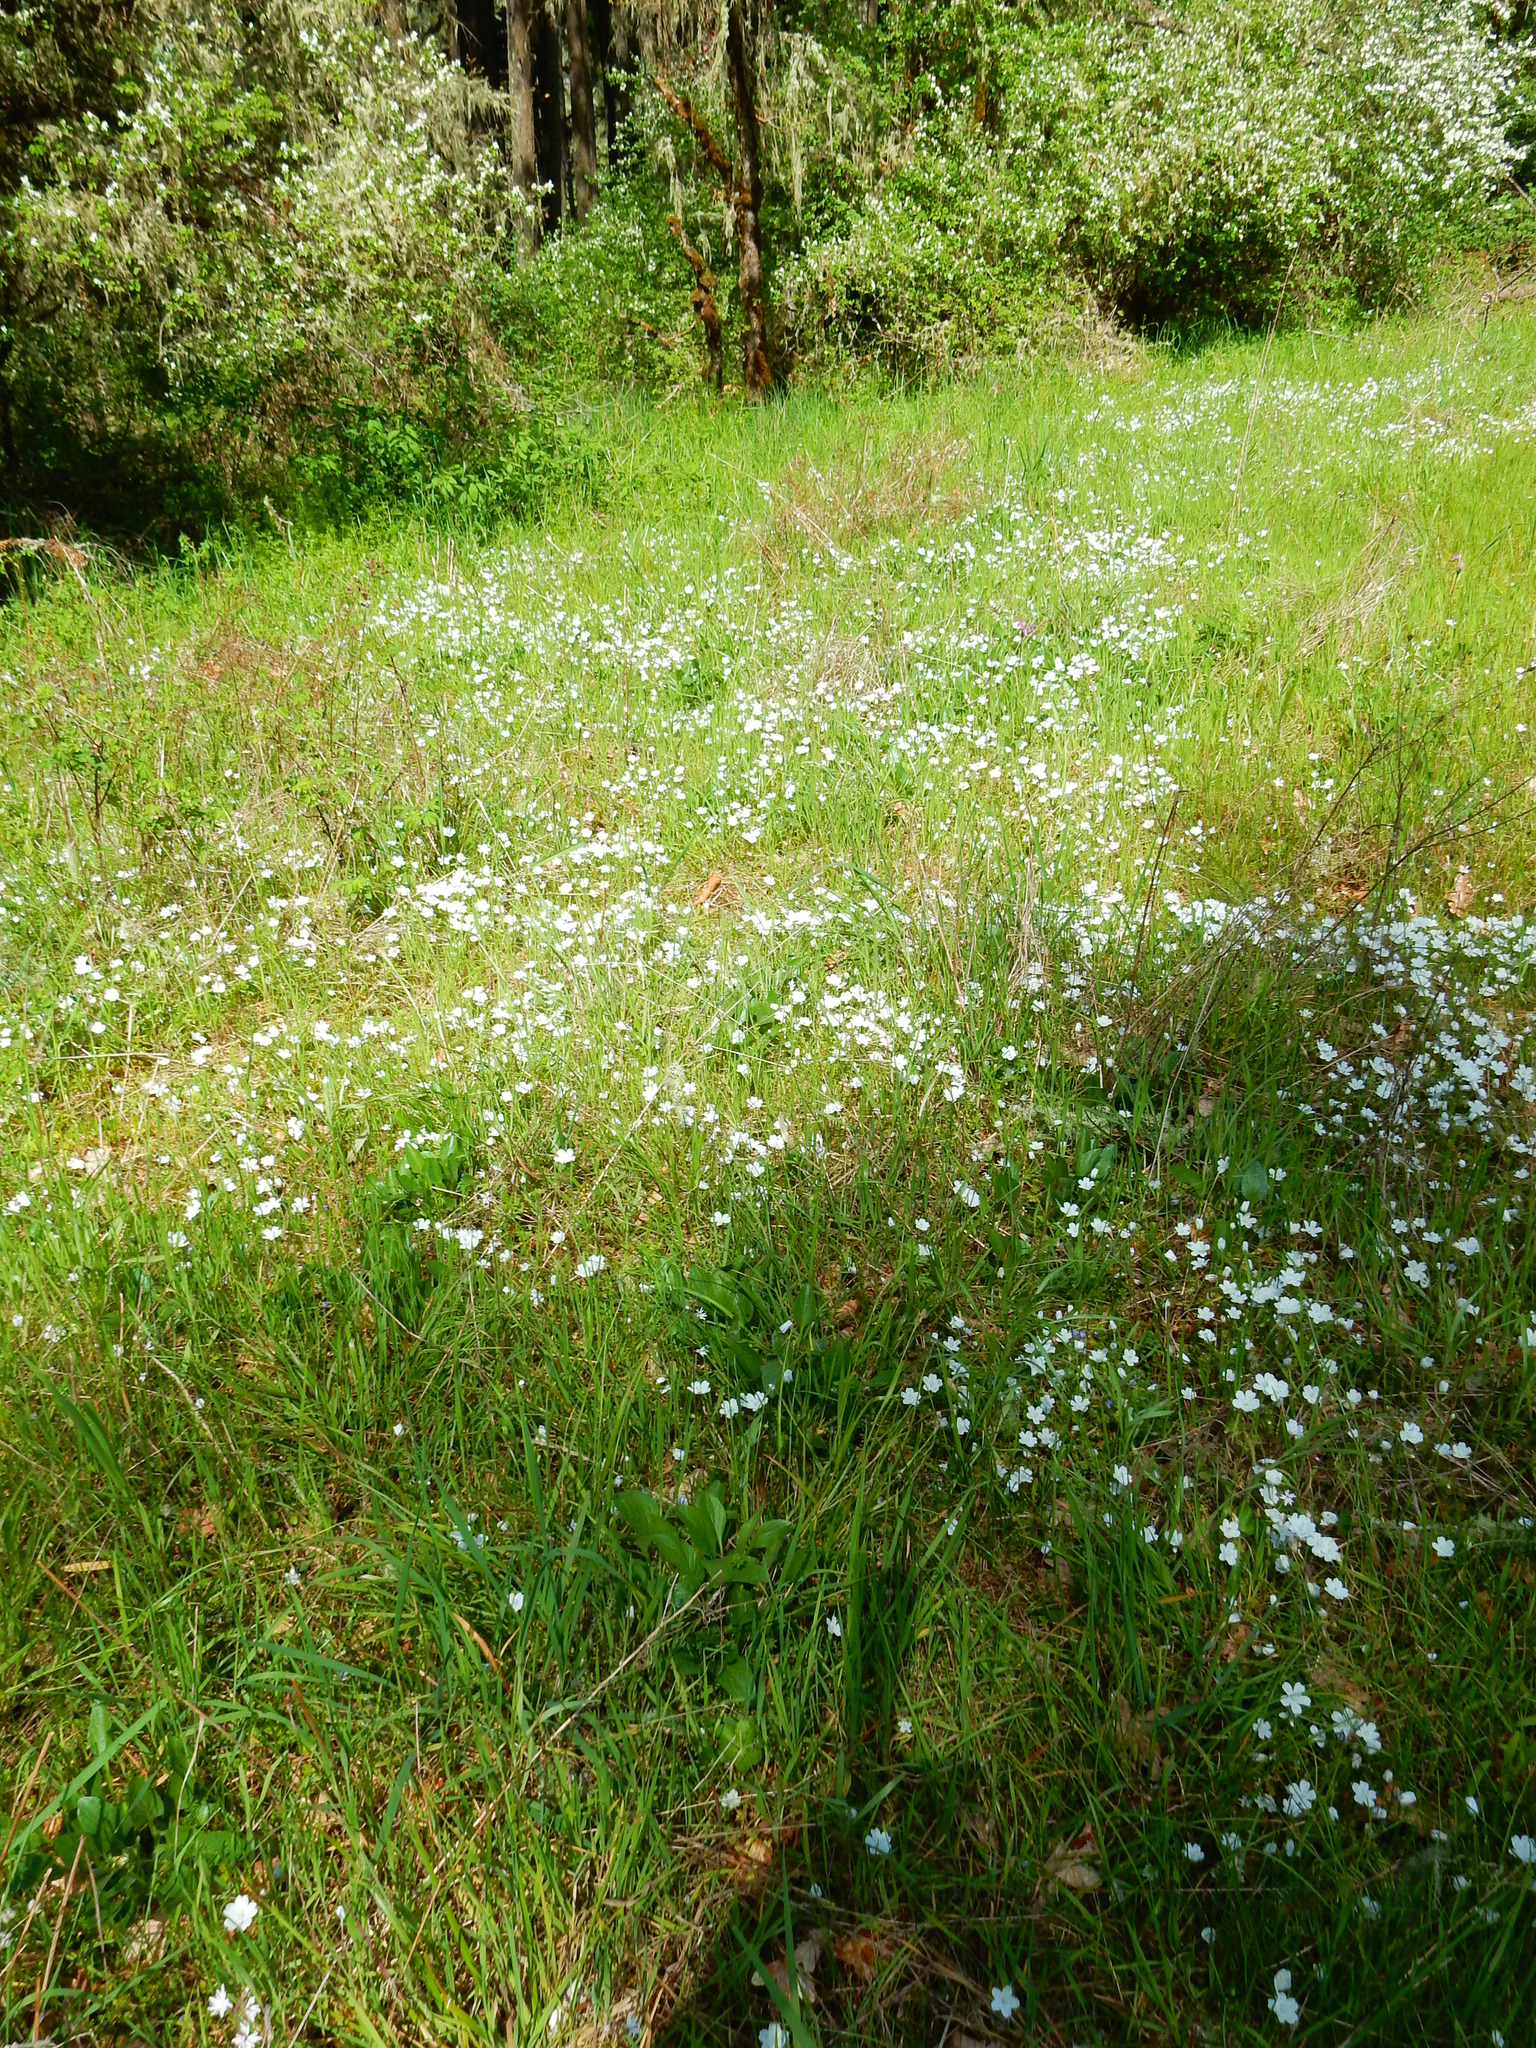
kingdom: Plantae
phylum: Tracheophyta
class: Magnoliopsida
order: Boraginales
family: Hydrophyllaceae
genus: Nemophila
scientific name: Nemophila menziesii
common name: Baby's-blue-eyes
